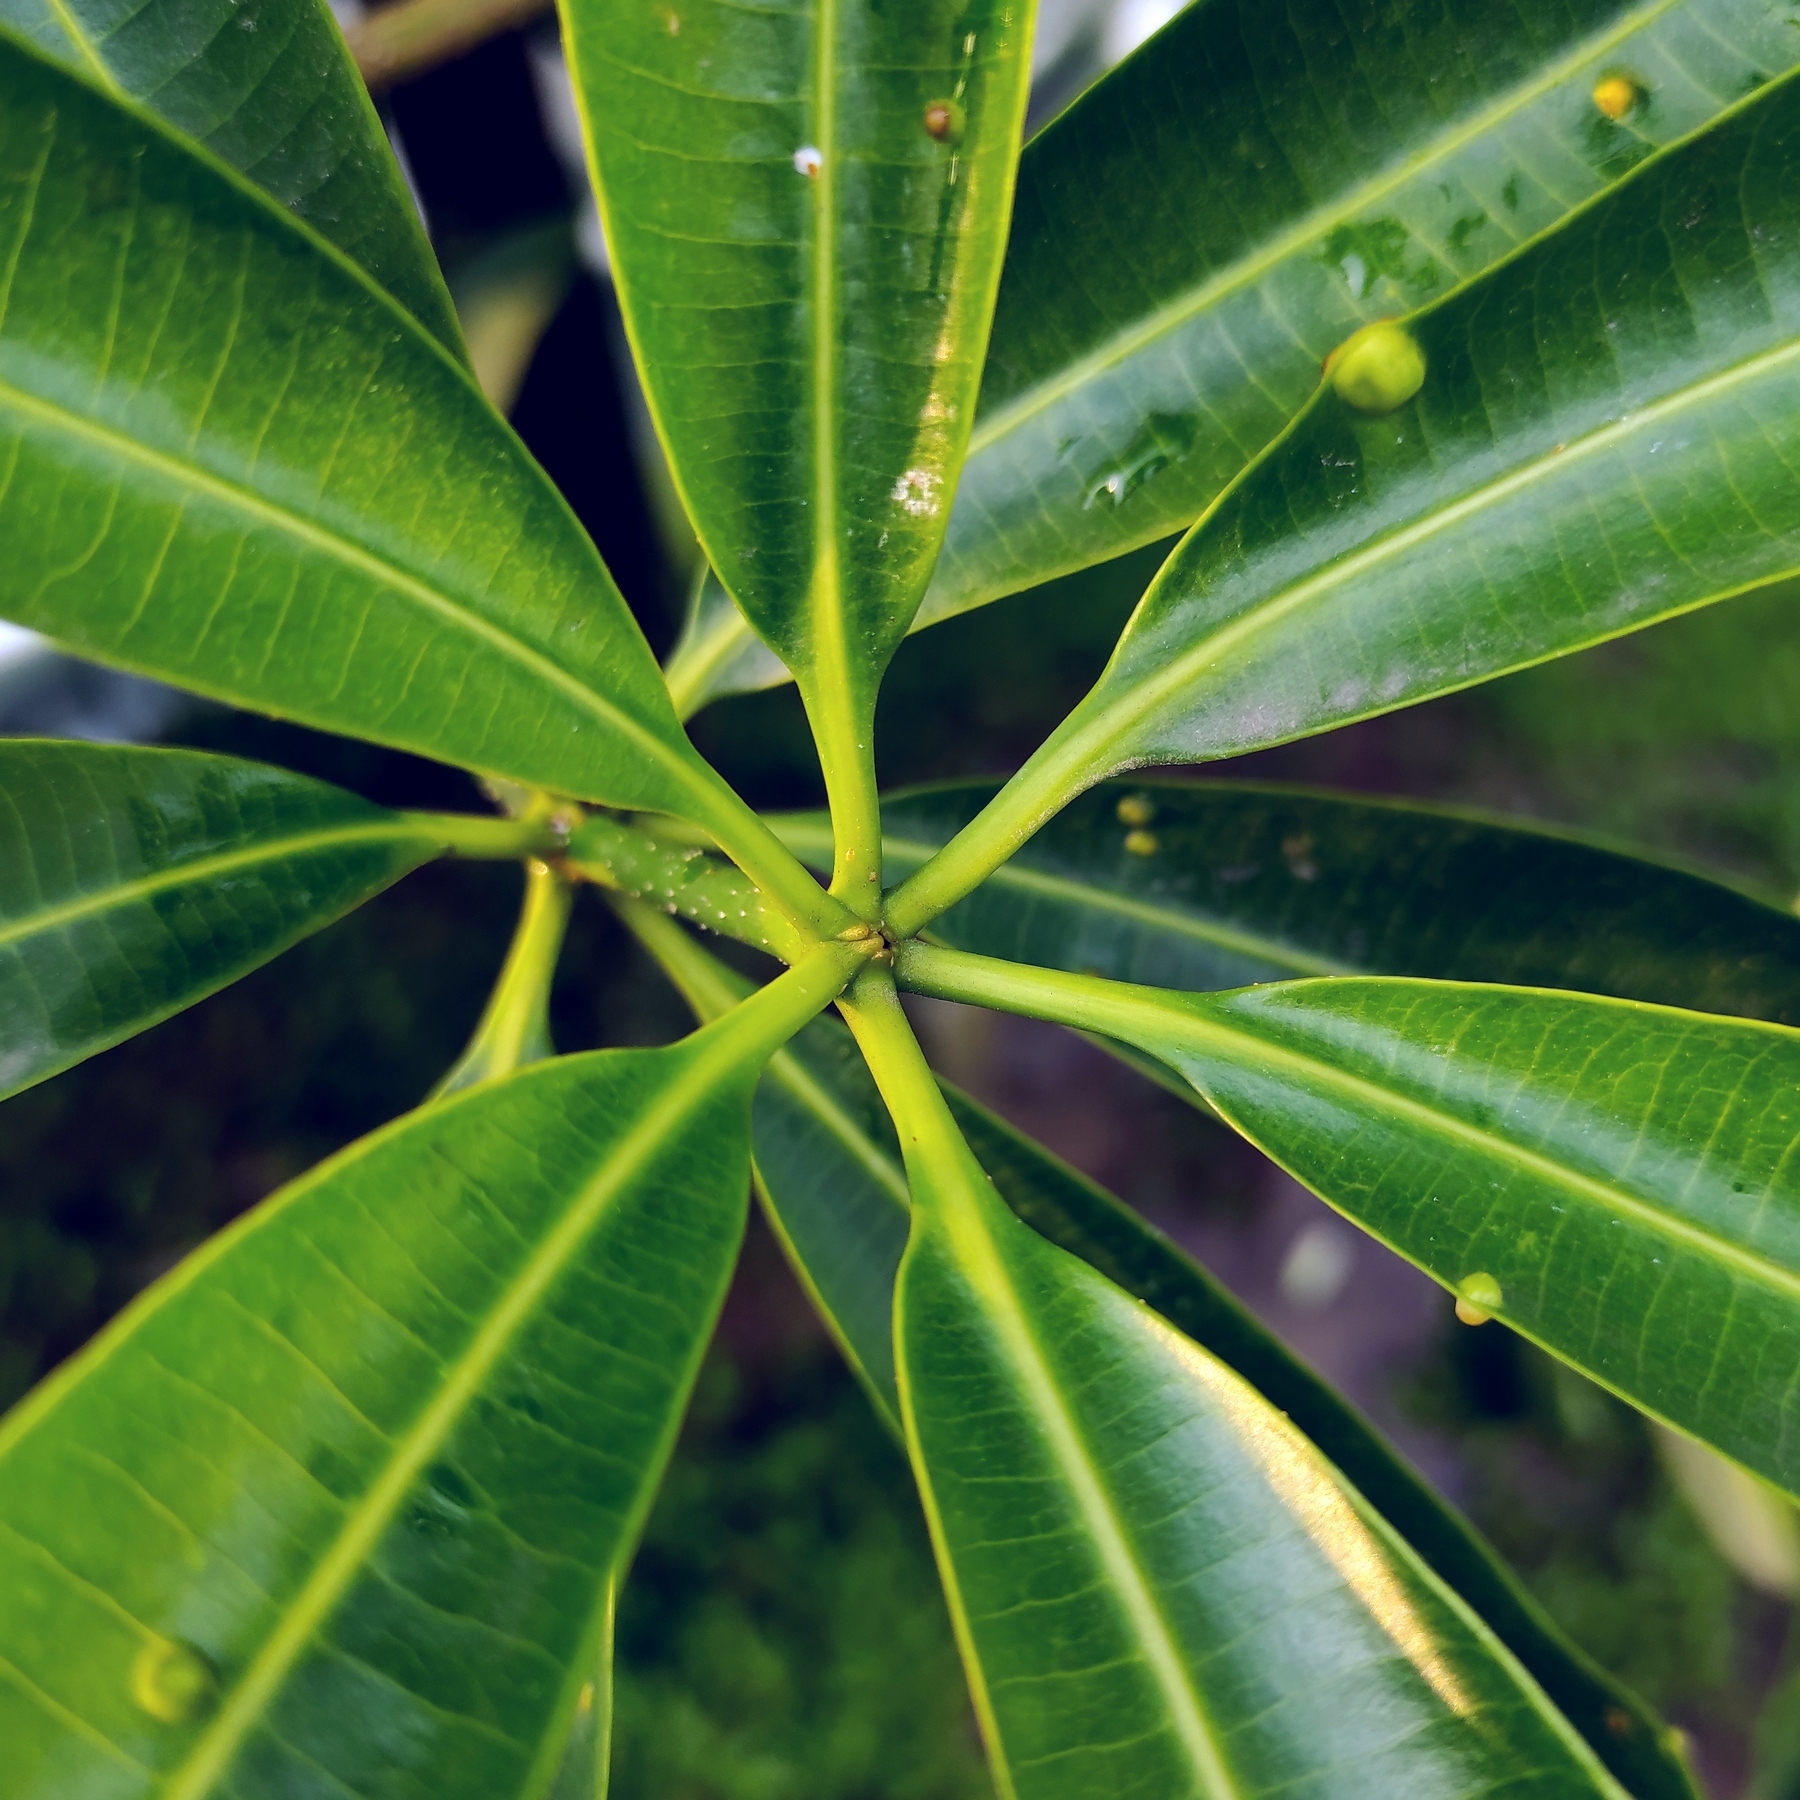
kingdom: Plantae
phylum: Tracheophyta
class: Magnoliopsida
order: Gentianales
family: Apocynaceae
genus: Alstonia
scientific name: Alstonia scholaris
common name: White cheesewood
